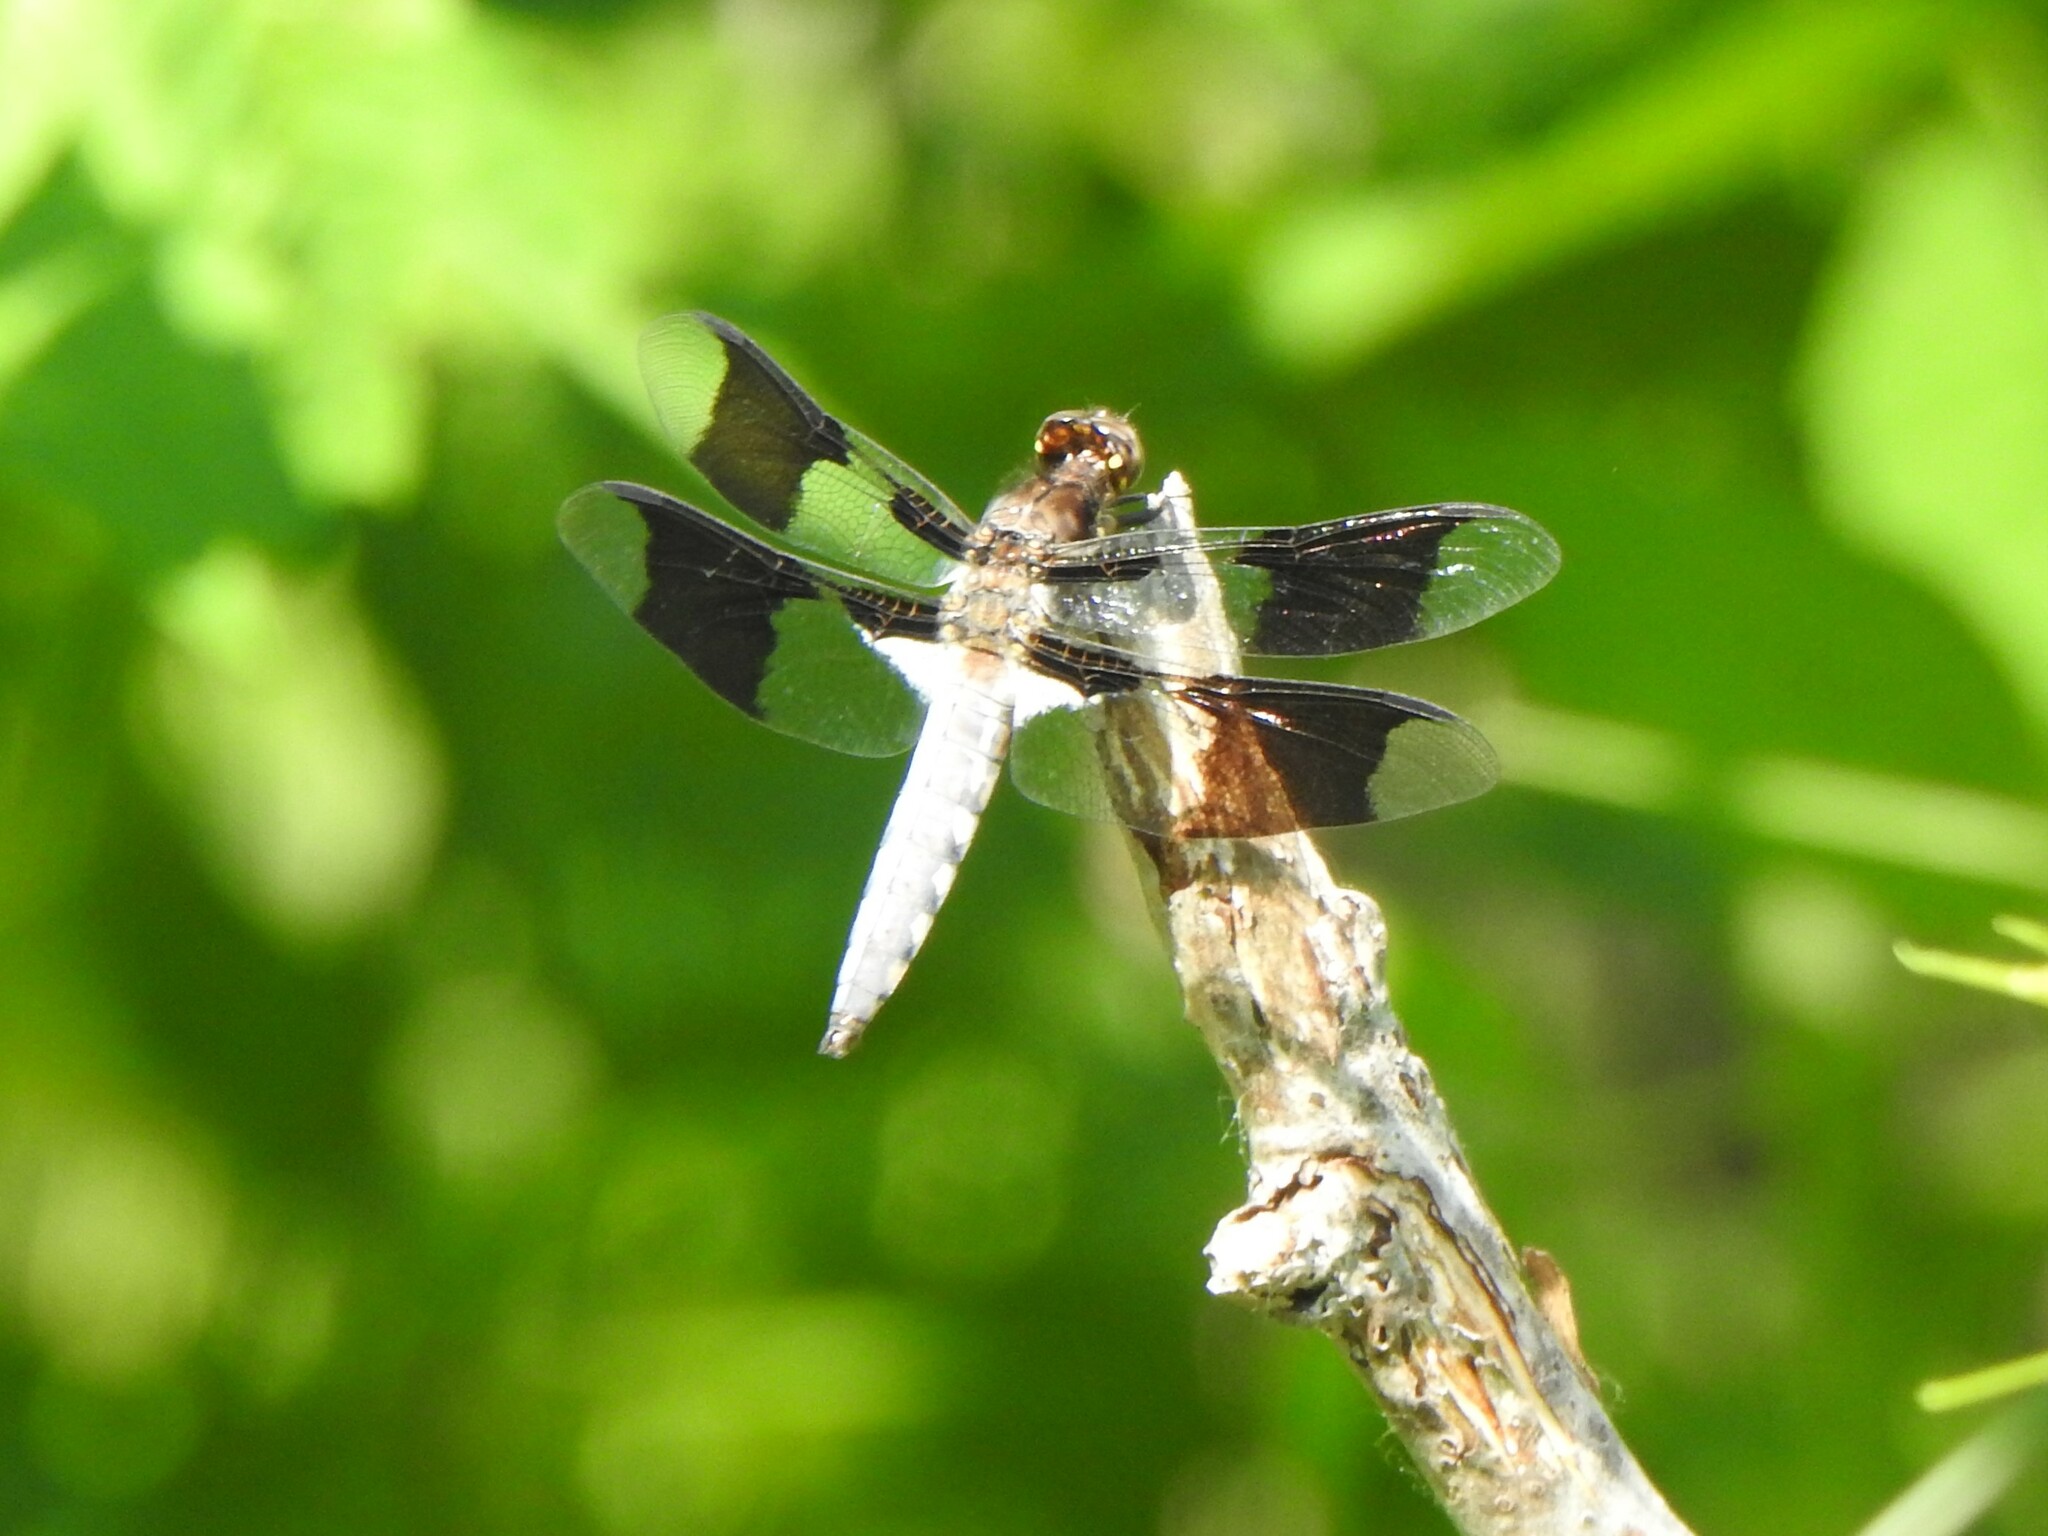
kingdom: Animalia
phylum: Arthropoda
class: Insecta
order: Odonata
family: Libellulidae
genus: Plathemis
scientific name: Plathemis lydia
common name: Common whitetail
